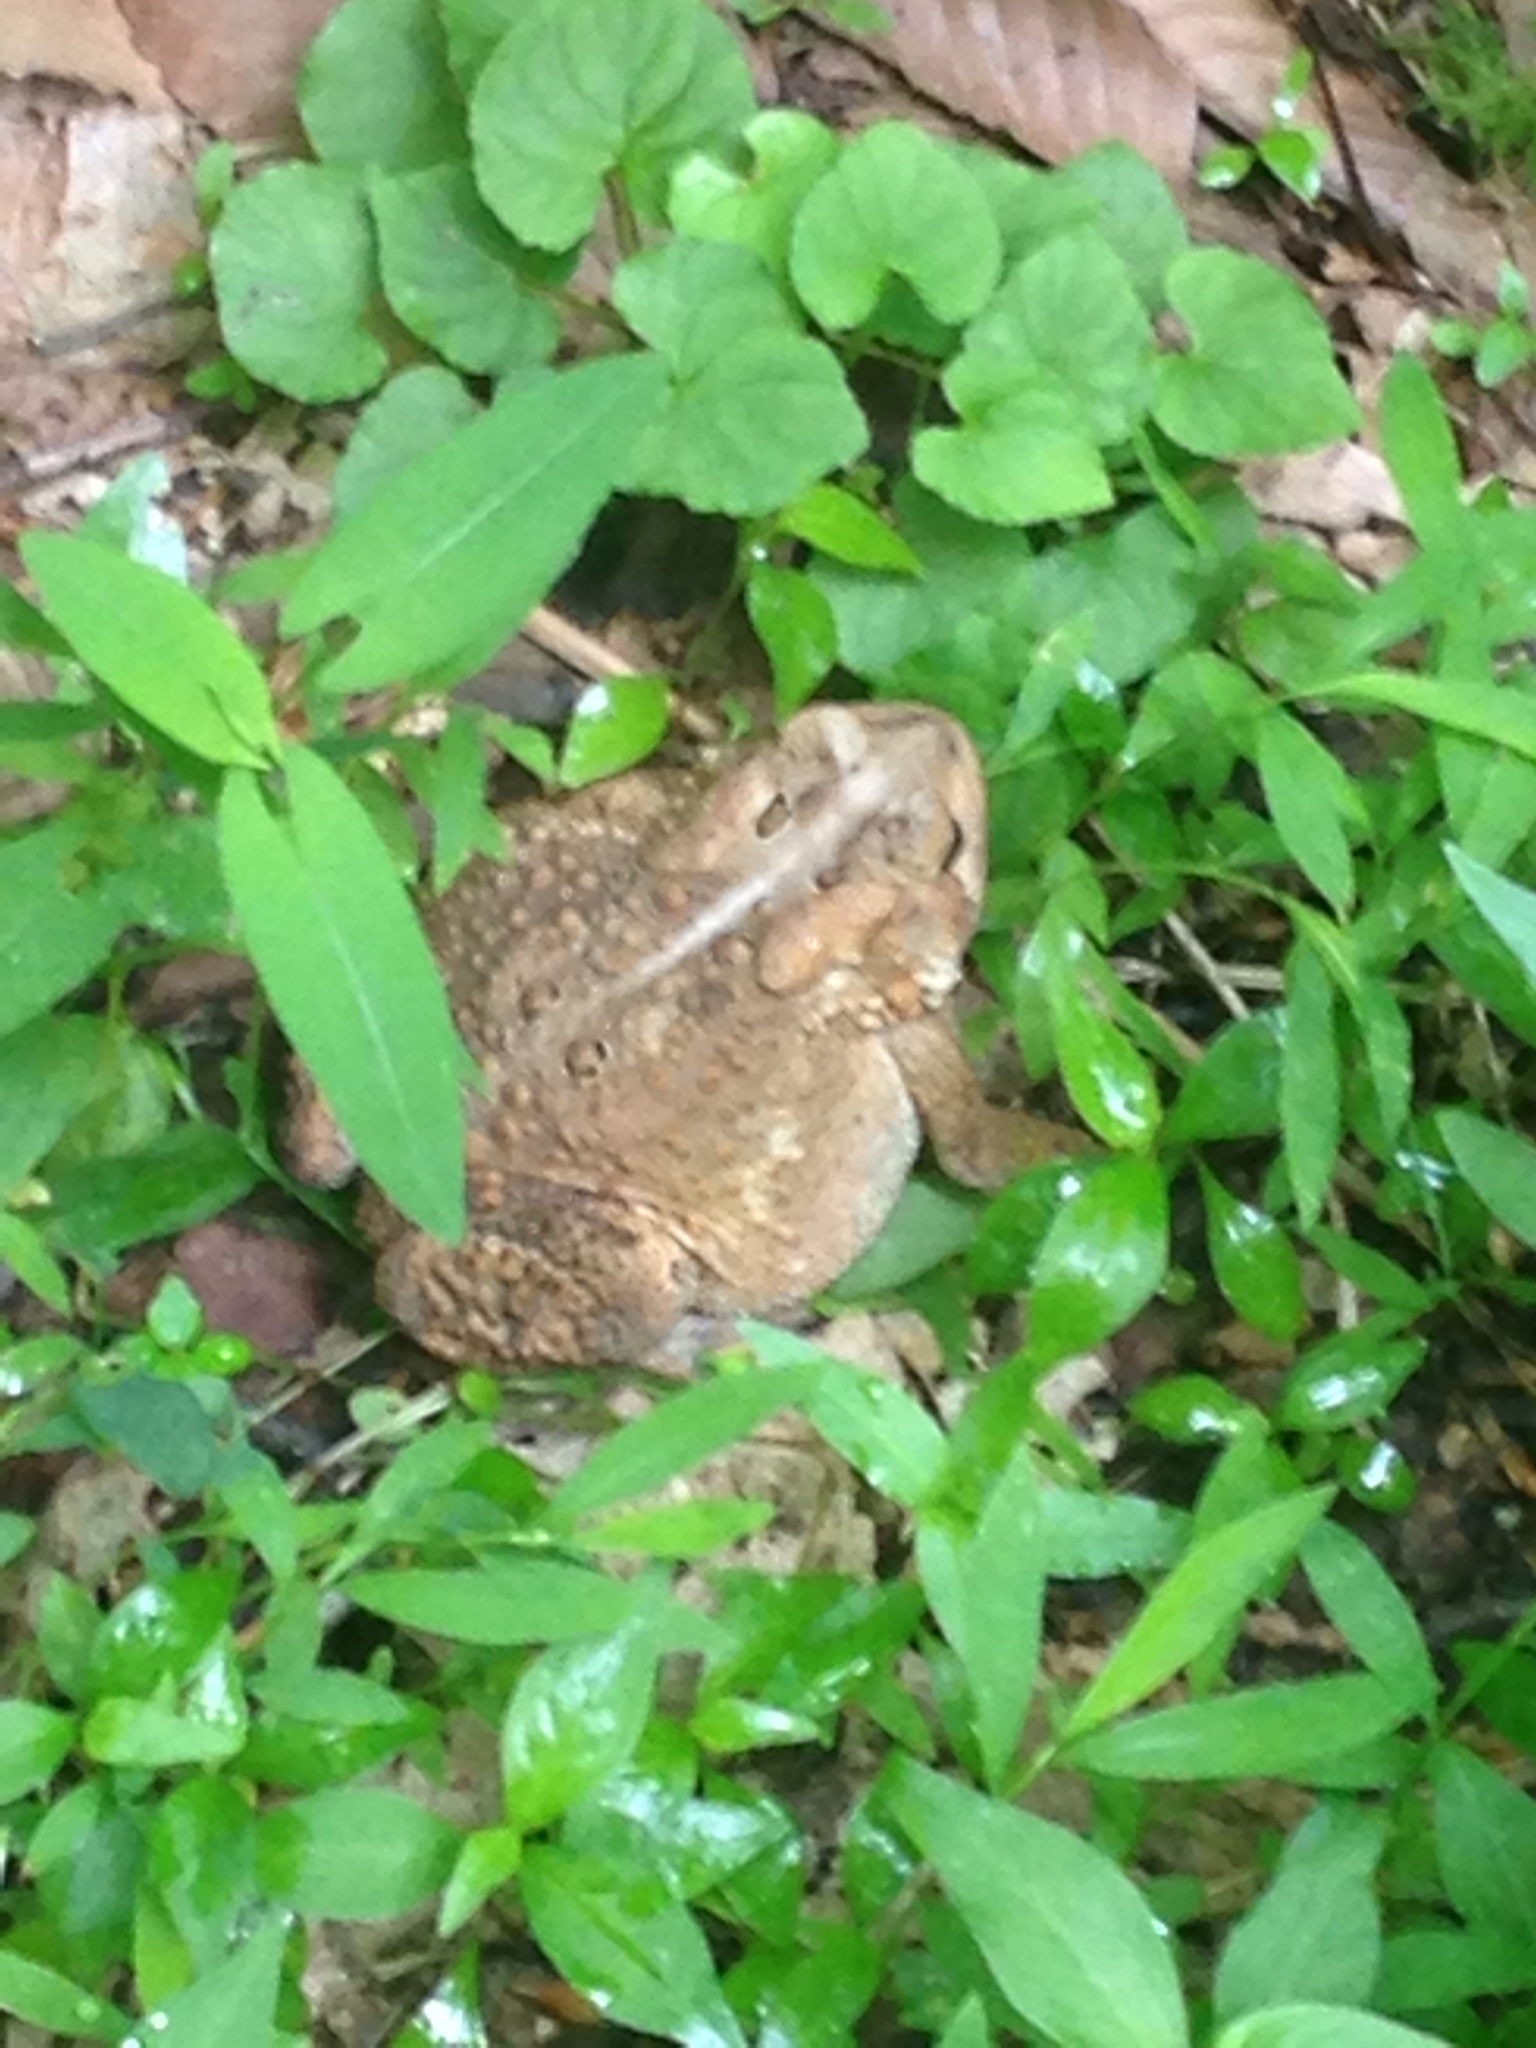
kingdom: Animalia
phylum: Chordata
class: Amphibia
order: Anura
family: Bufonidae
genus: Anaxyrus
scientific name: Anaxyrus americanus
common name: American toad
